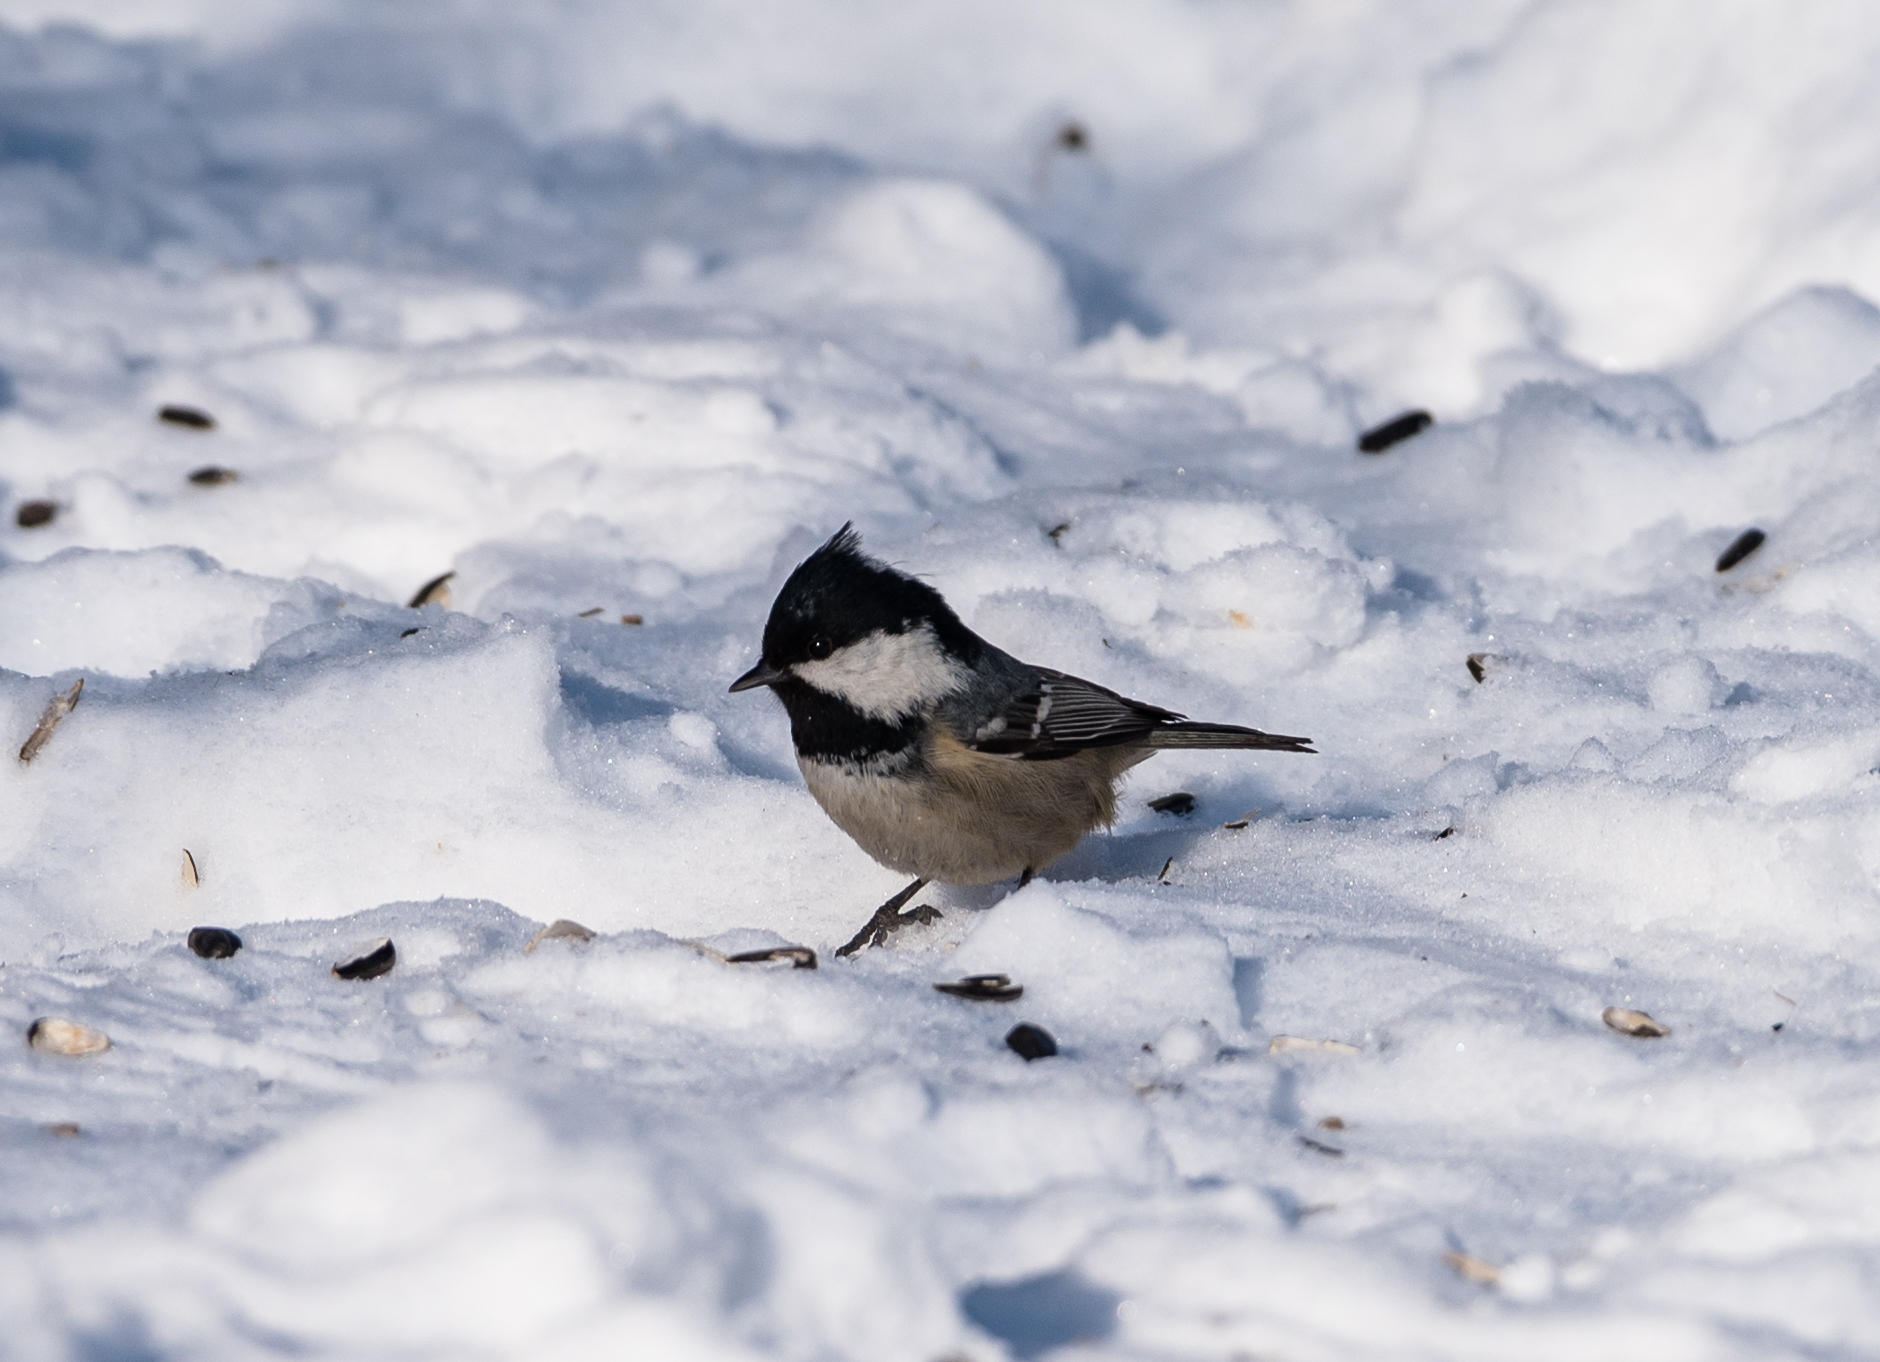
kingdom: Animalia
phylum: Chordata
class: Aves
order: Passeriformes
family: Paridae
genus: Periparus
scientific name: Periparus ater
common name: Coal tit
